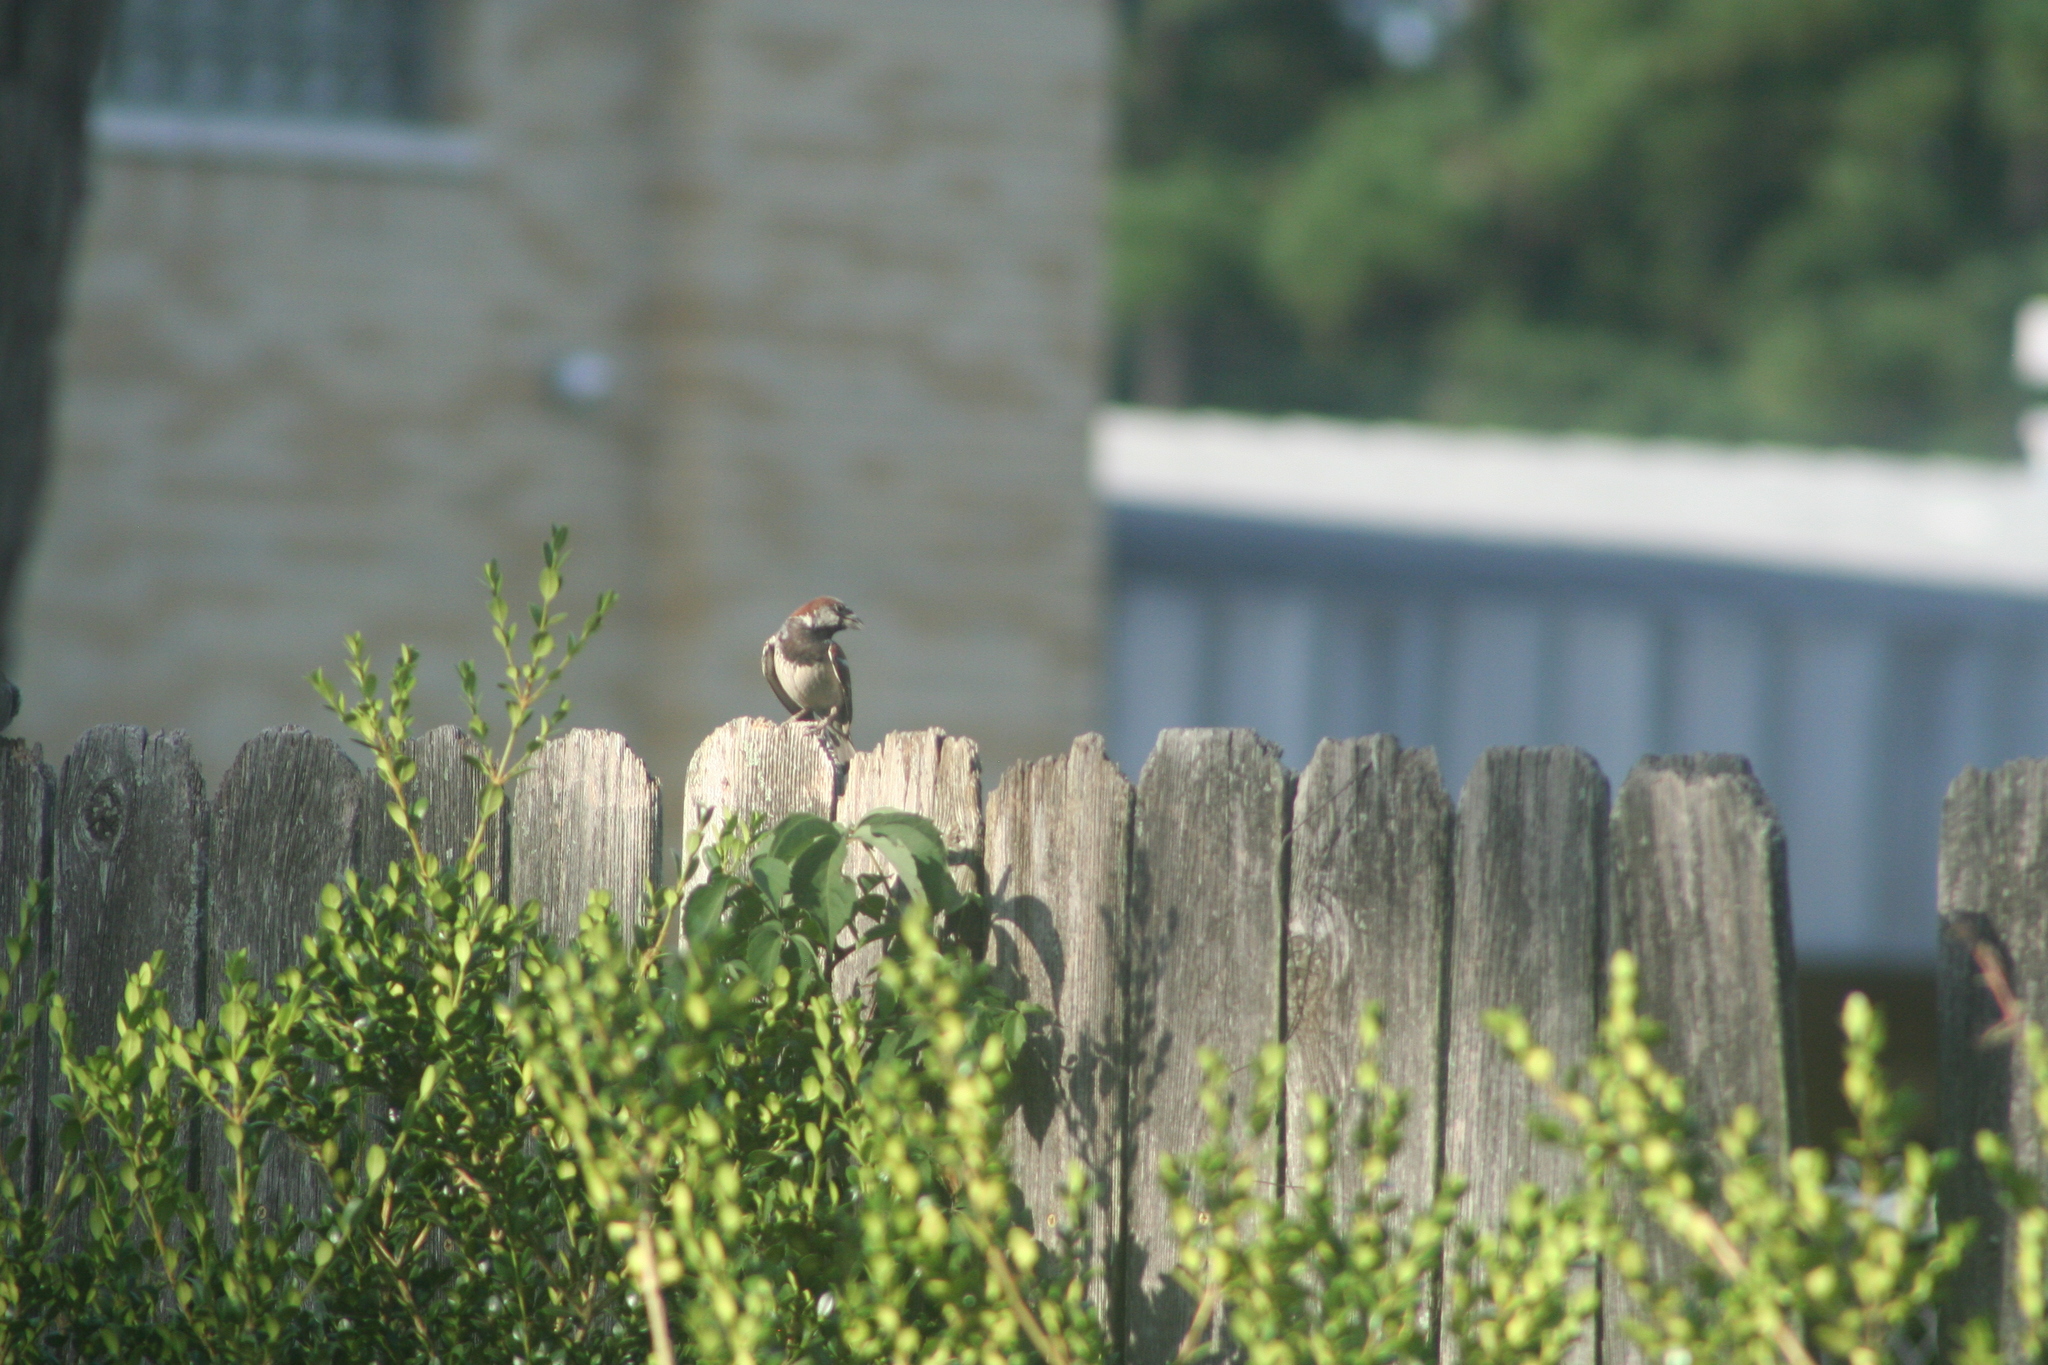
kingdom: Animalia
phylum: Chordata
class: Aves
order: Passeriformes
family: Passeridae
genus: Passer
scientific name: Passer domesticus
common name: House sparrow
